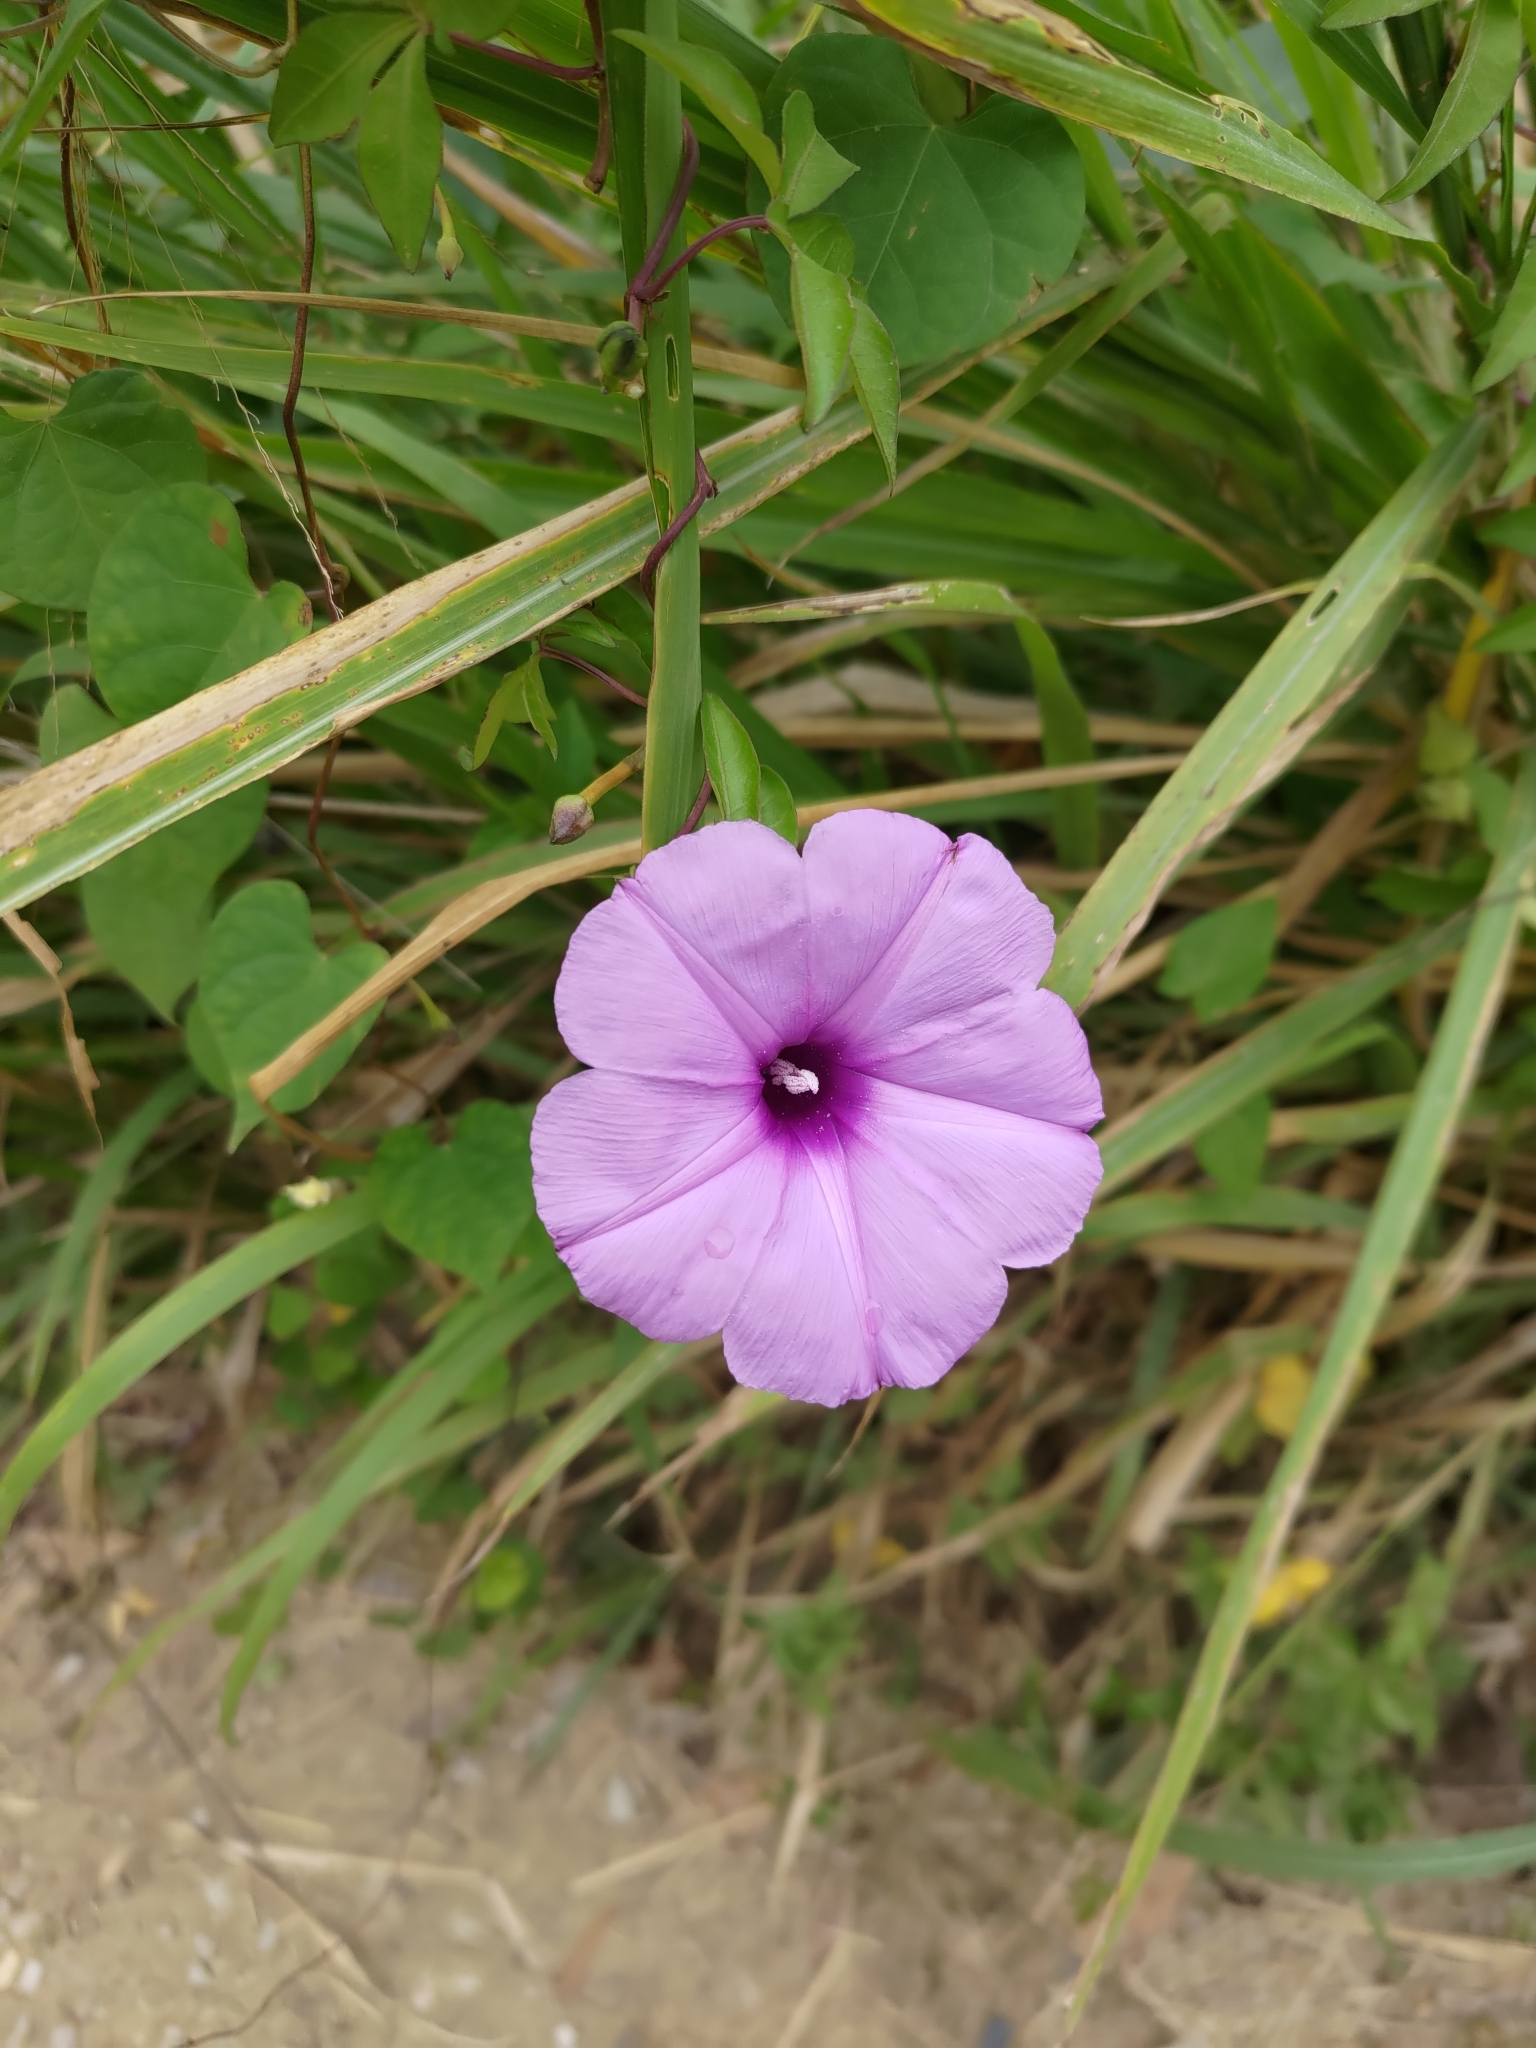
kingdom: Plantae
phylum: Tracheophyta
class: Magnoliopsida
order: Solanales
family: Convolvulaceae
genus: Ipomoea
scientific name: Ipomoea cairica
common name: Mile a minute vine
